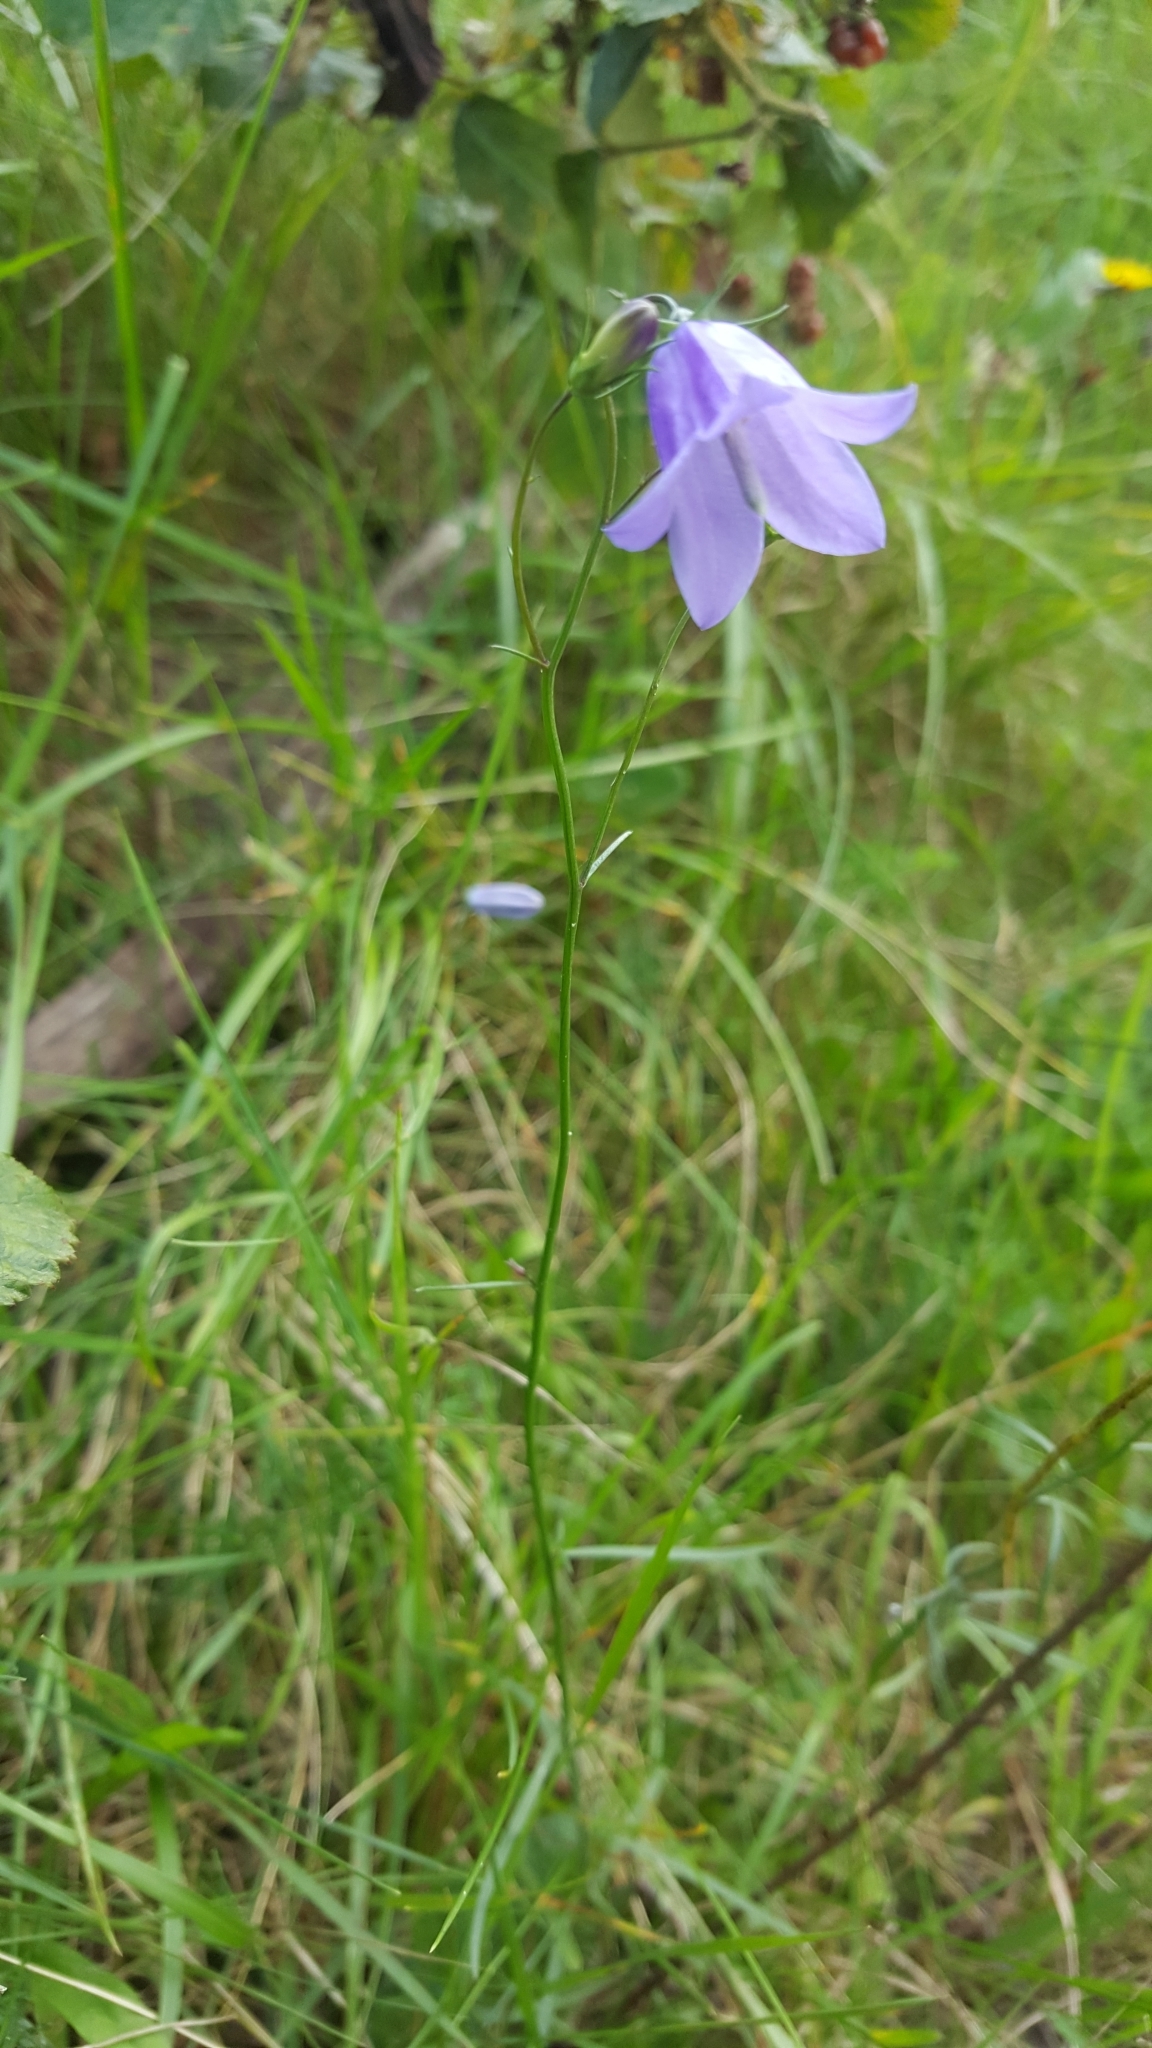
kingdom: Plantae
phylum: Tracheophyta
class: Magnoliopsida
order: Asterales
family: Campanulaceae
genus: Campanula
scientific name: Campanula rotundifolia
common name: Harebell
